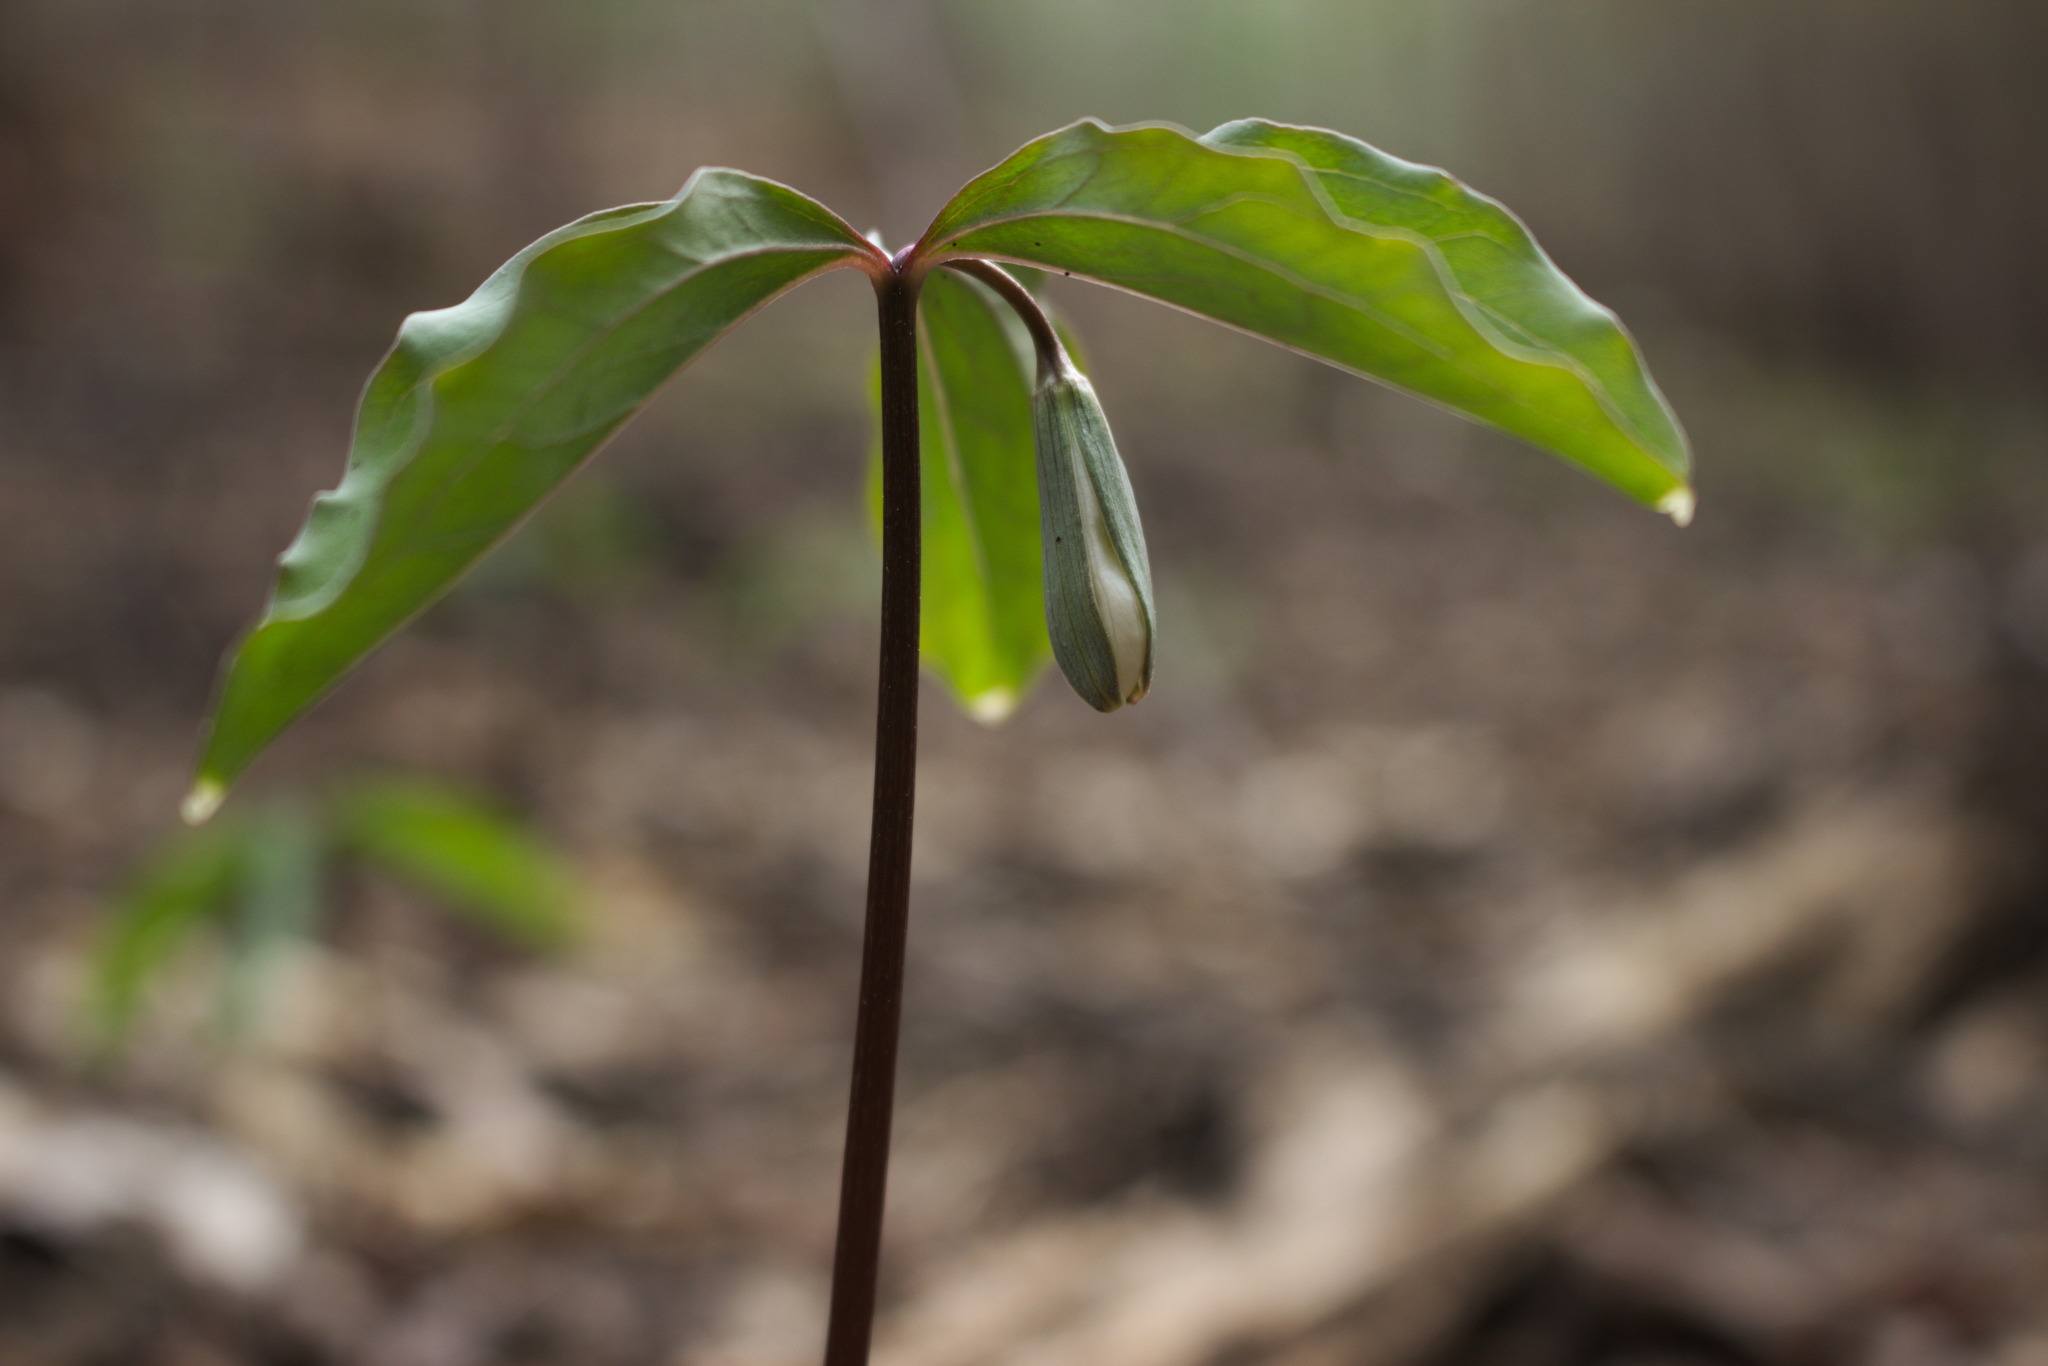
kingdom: Plantae
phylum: Tracheophyta
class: Liliopsida
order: Liliales
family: Melanthiaceae
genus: Trillium
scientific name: Trillium catesbaei
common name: Bashful trillium
